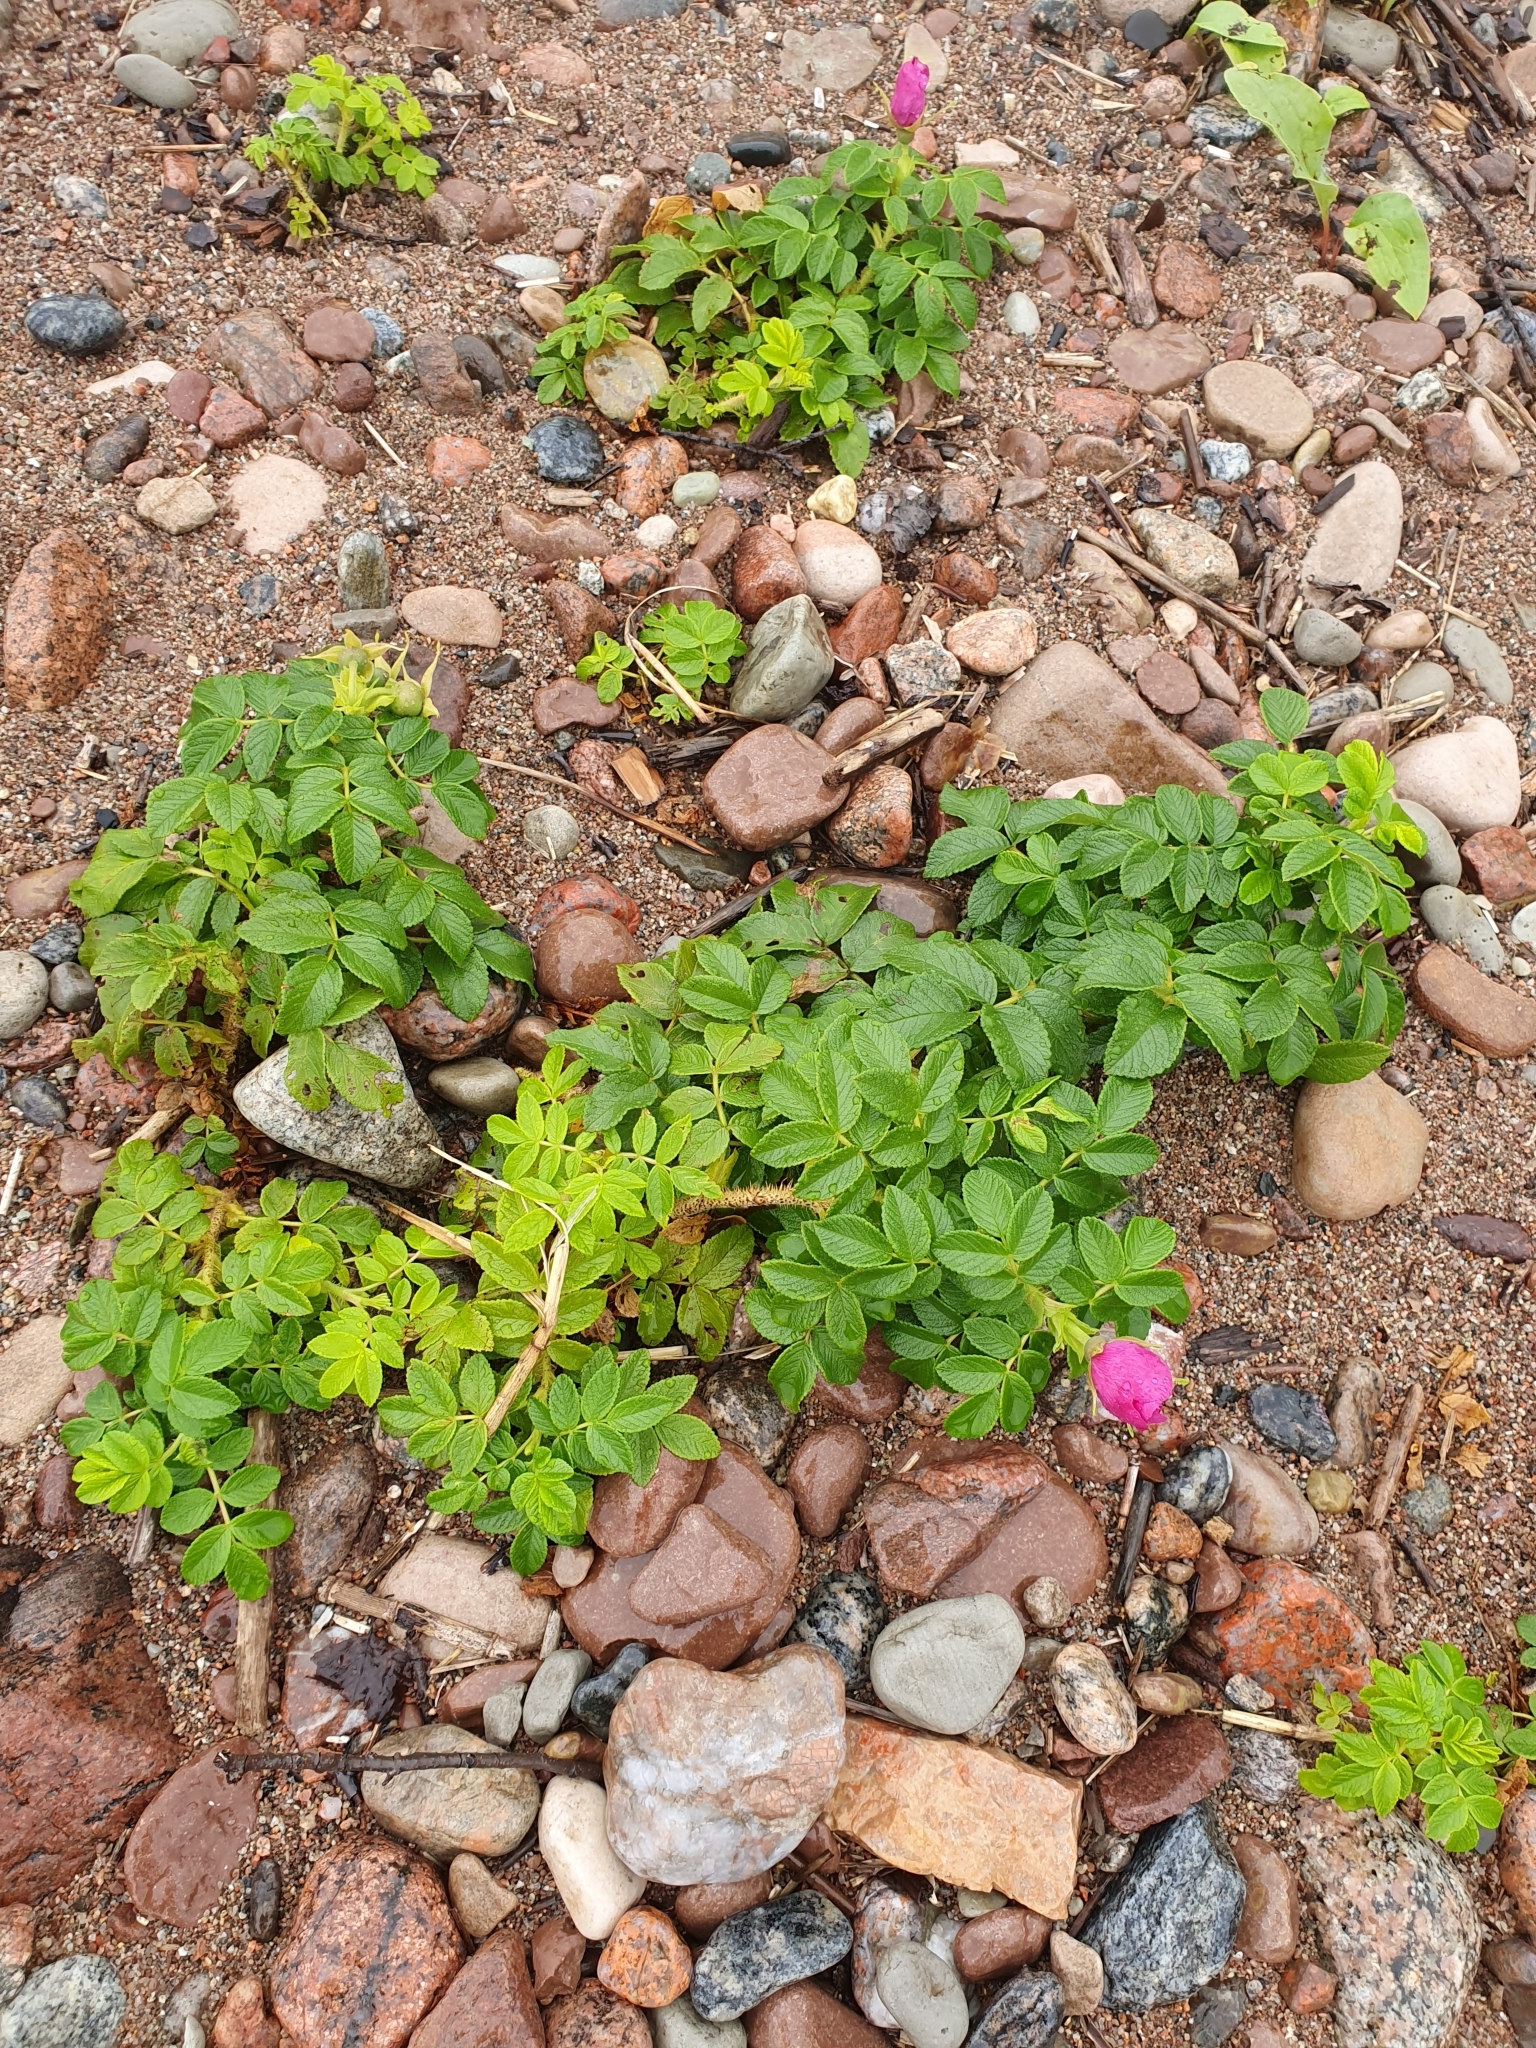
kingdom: Plantae
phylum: Tracheophyta
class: Magnoliopsida
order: Rosales
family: Rosaceae
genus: Rosa
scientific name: Rosa rugosa
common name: Japanese rose
